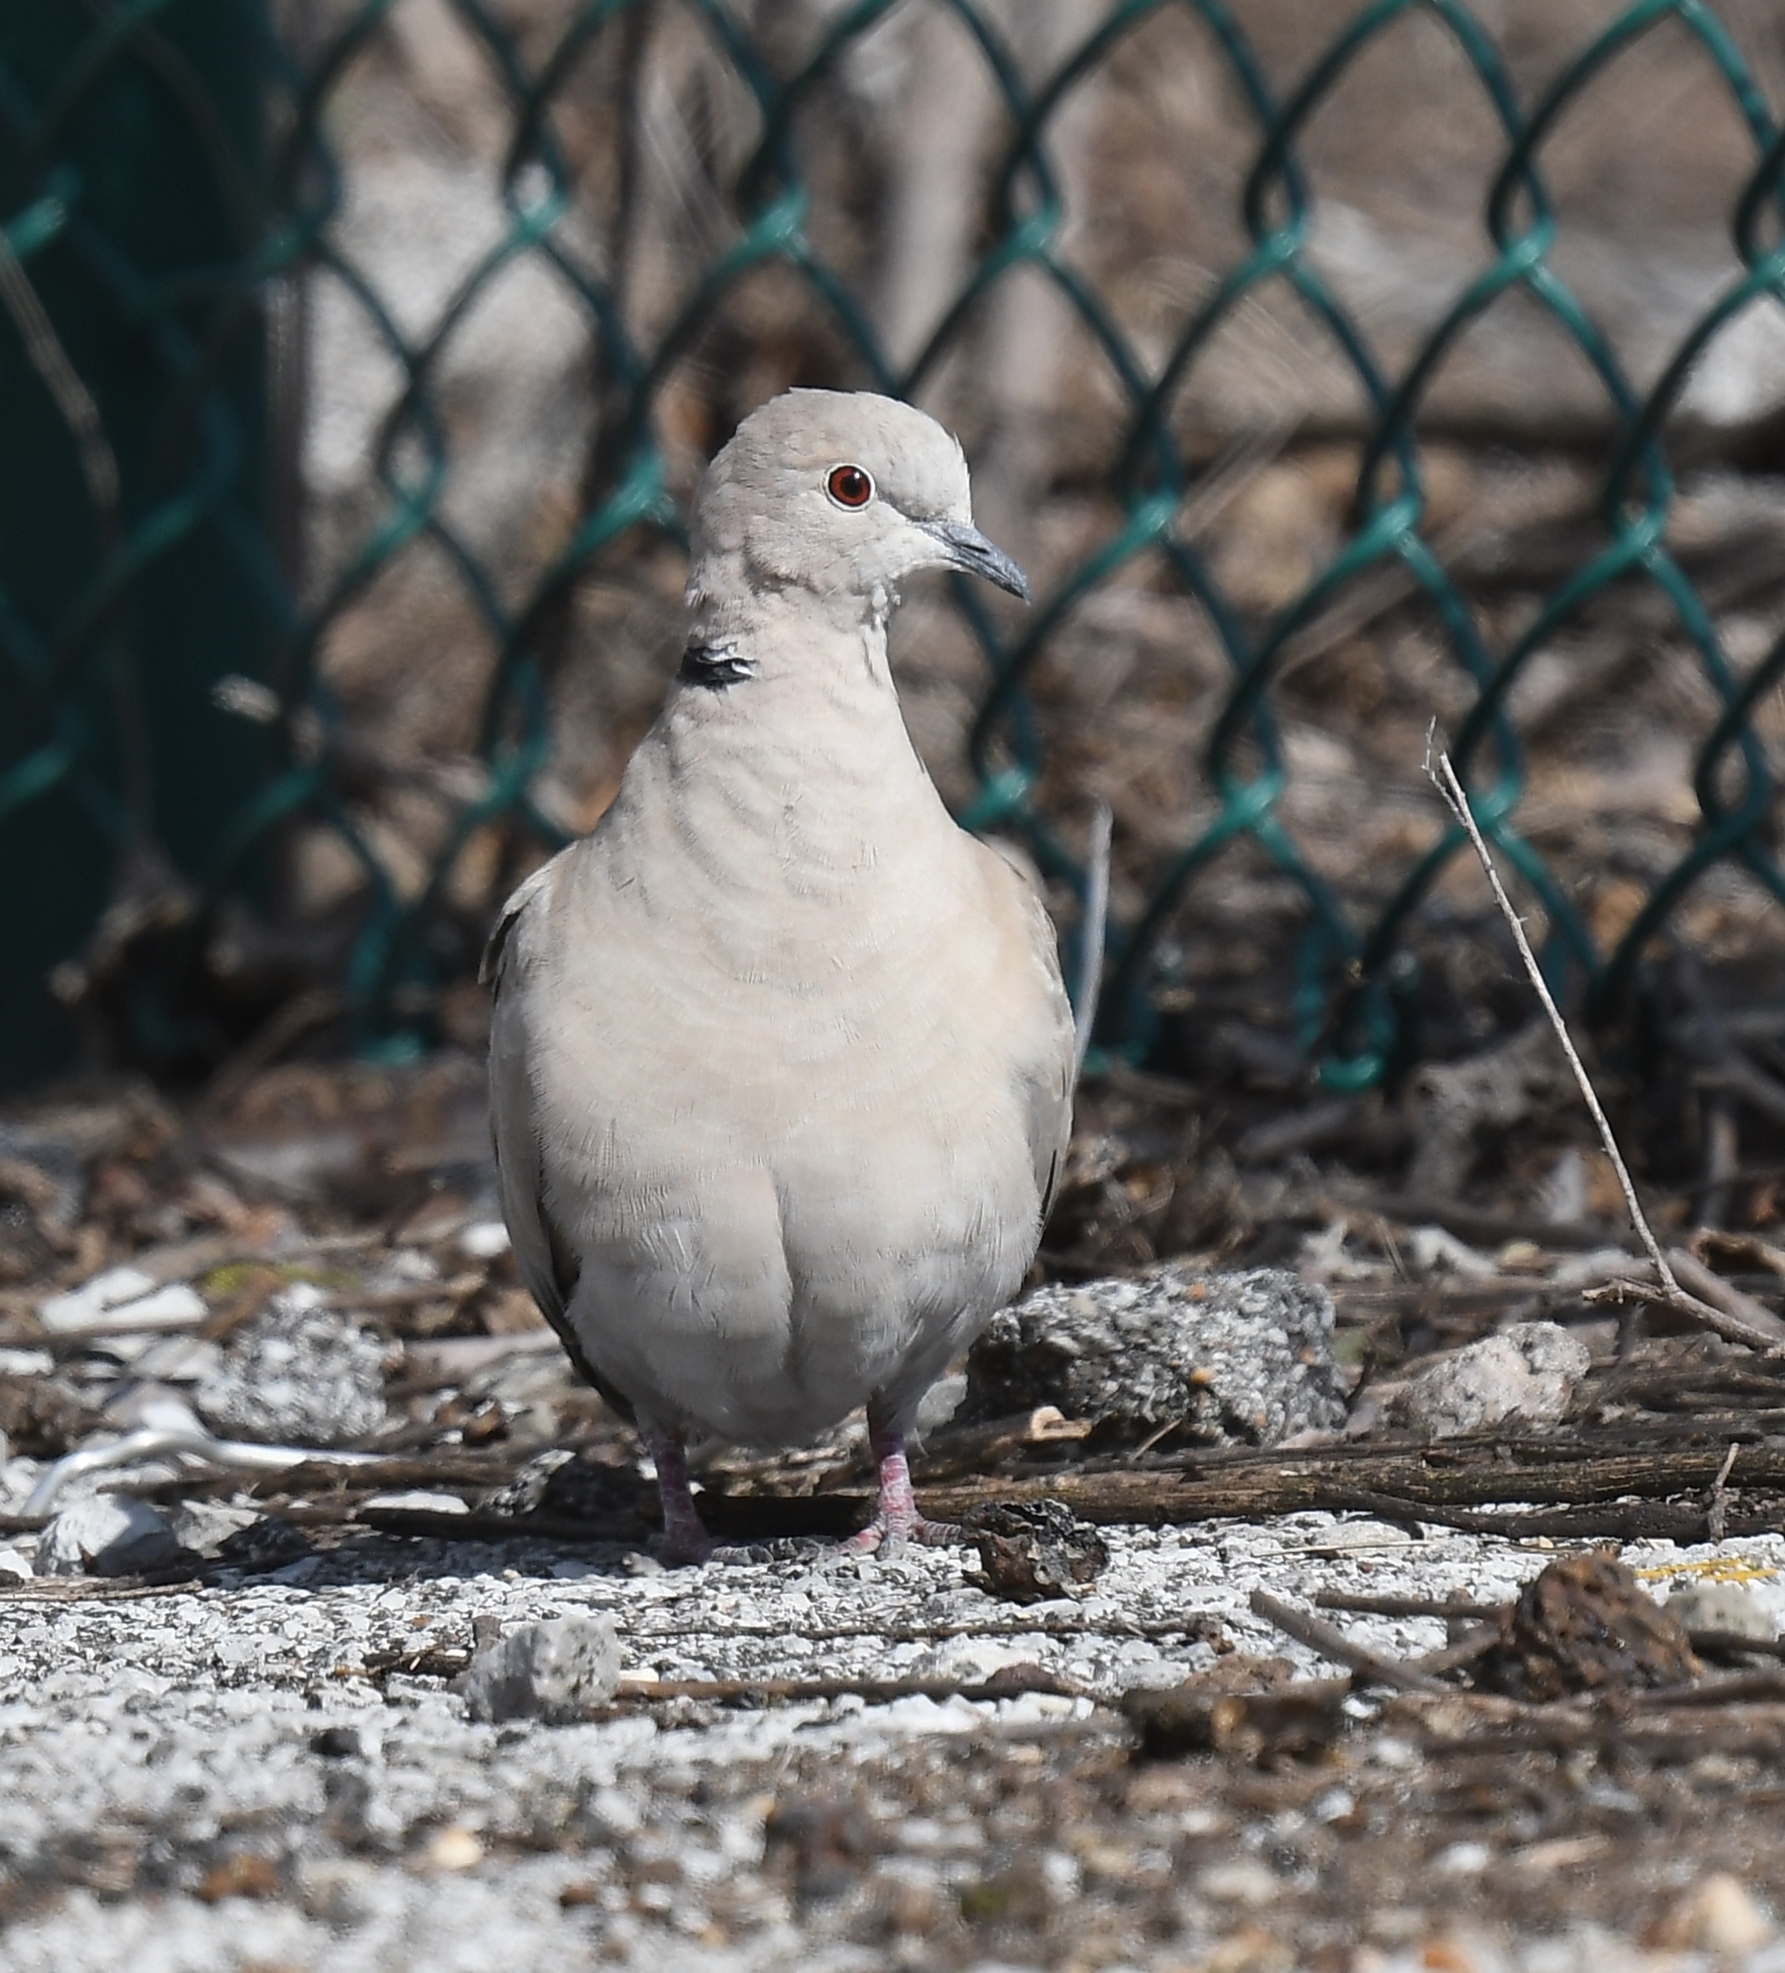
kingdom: Animalia
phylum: Chordata
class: Aves
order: Columbiformes
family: Columbidae
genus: Streptopelia
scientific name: Streptopelia decaocto
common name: Eurasian collared dove
